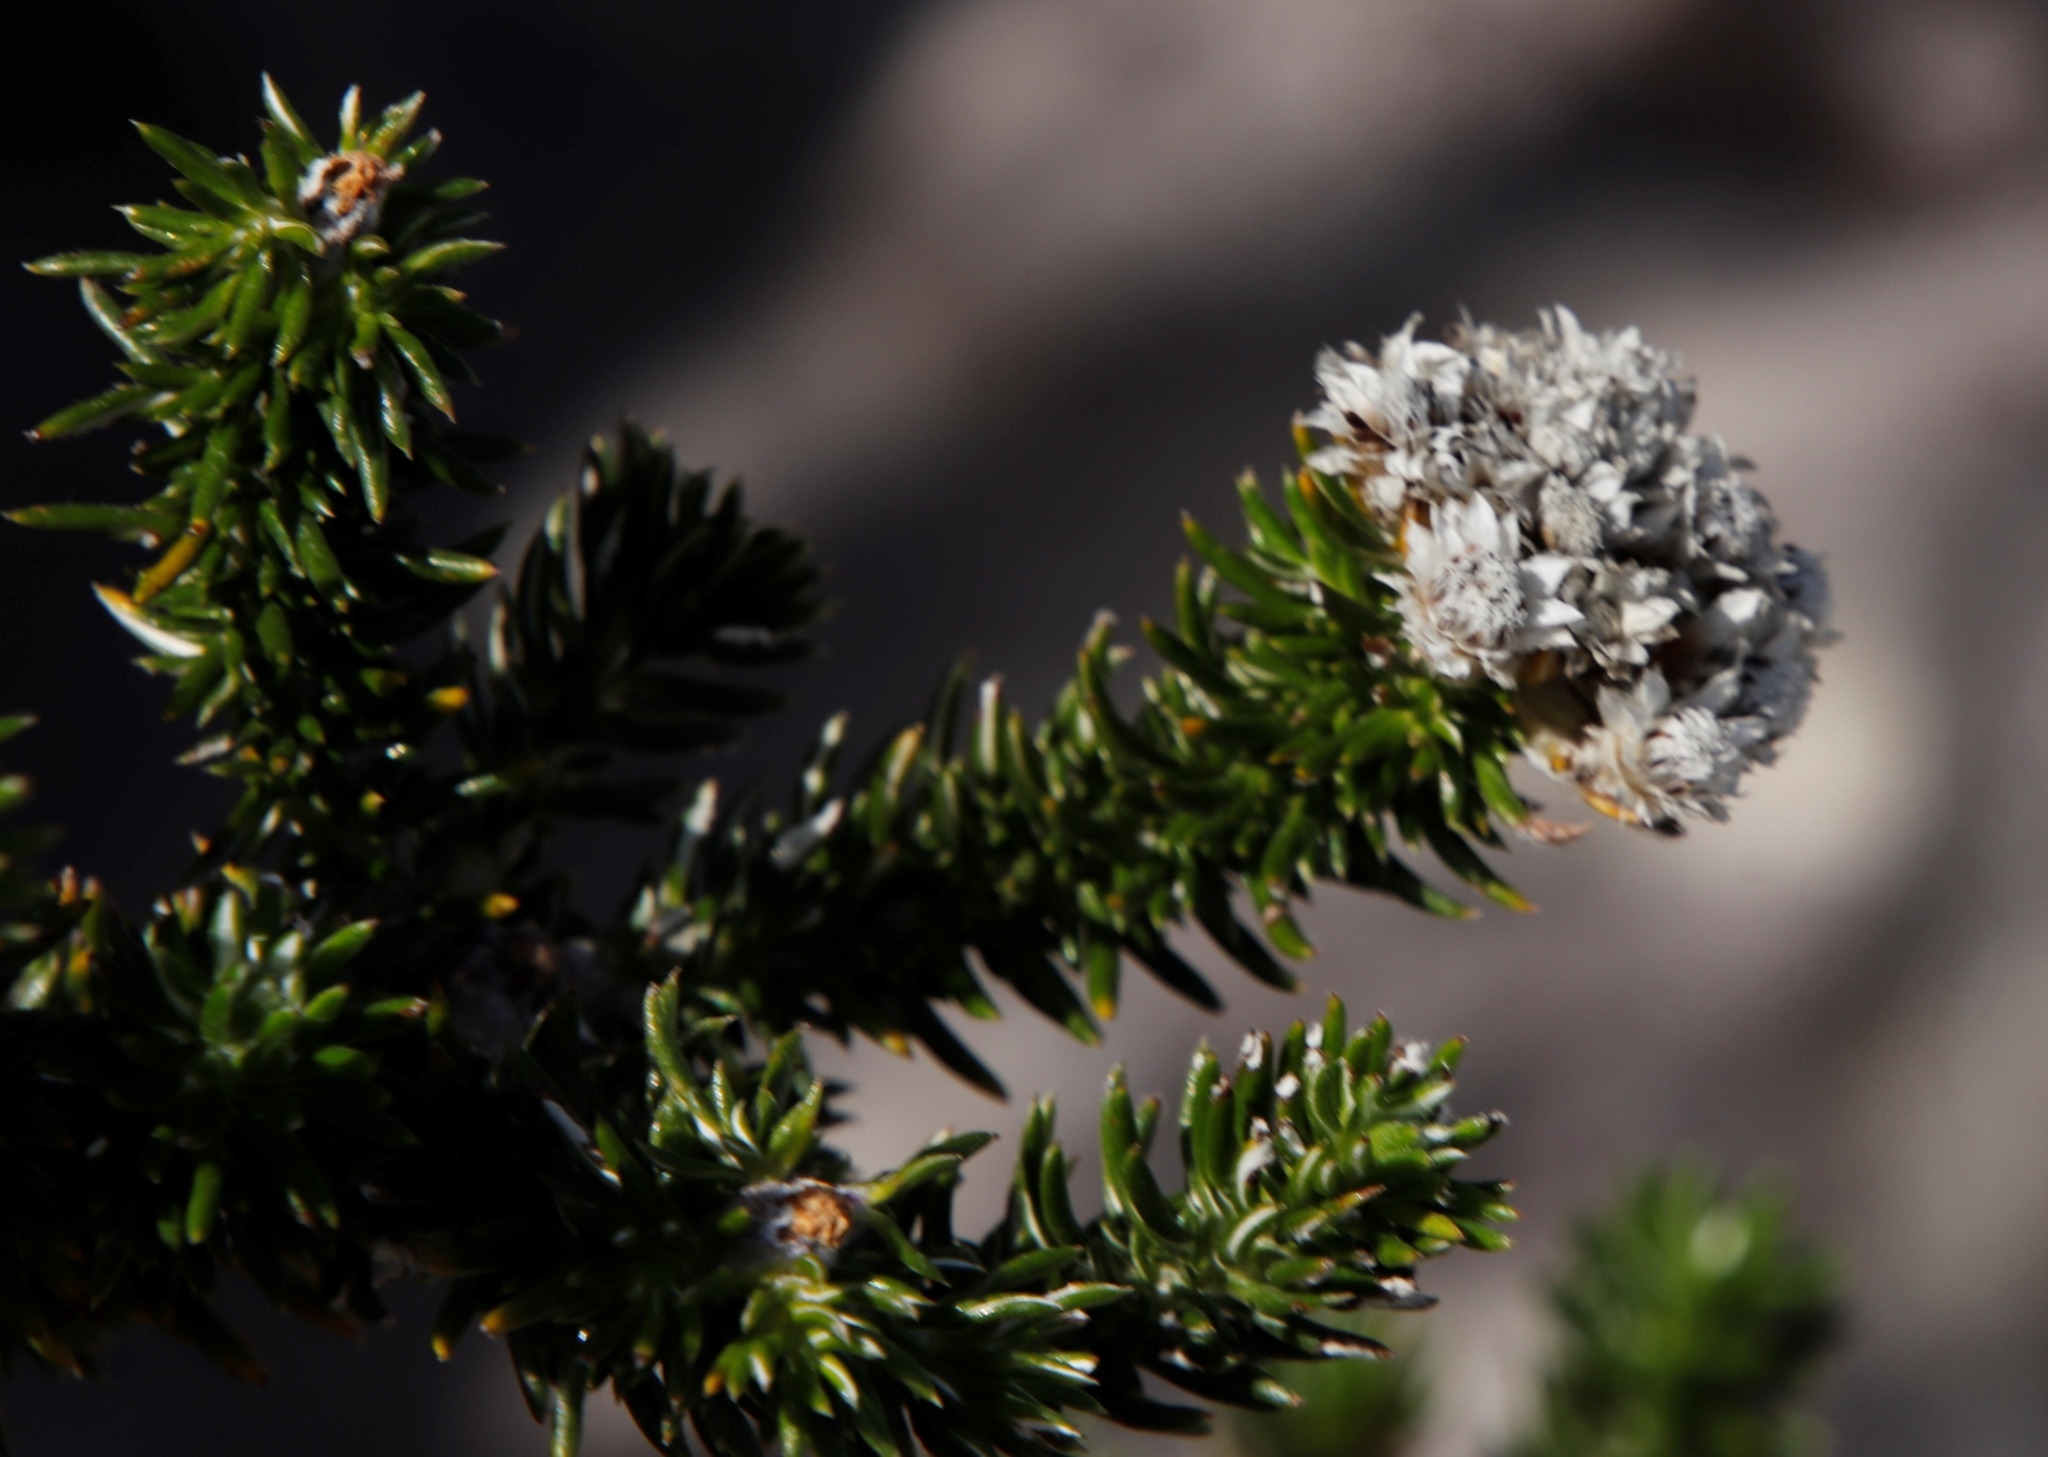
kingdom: Plantae
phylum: Tracheophyta
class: Magnoliopsida
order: Asterales
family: Asteraceae
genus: Metalasia
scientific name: Metalasia lichtensteinii
